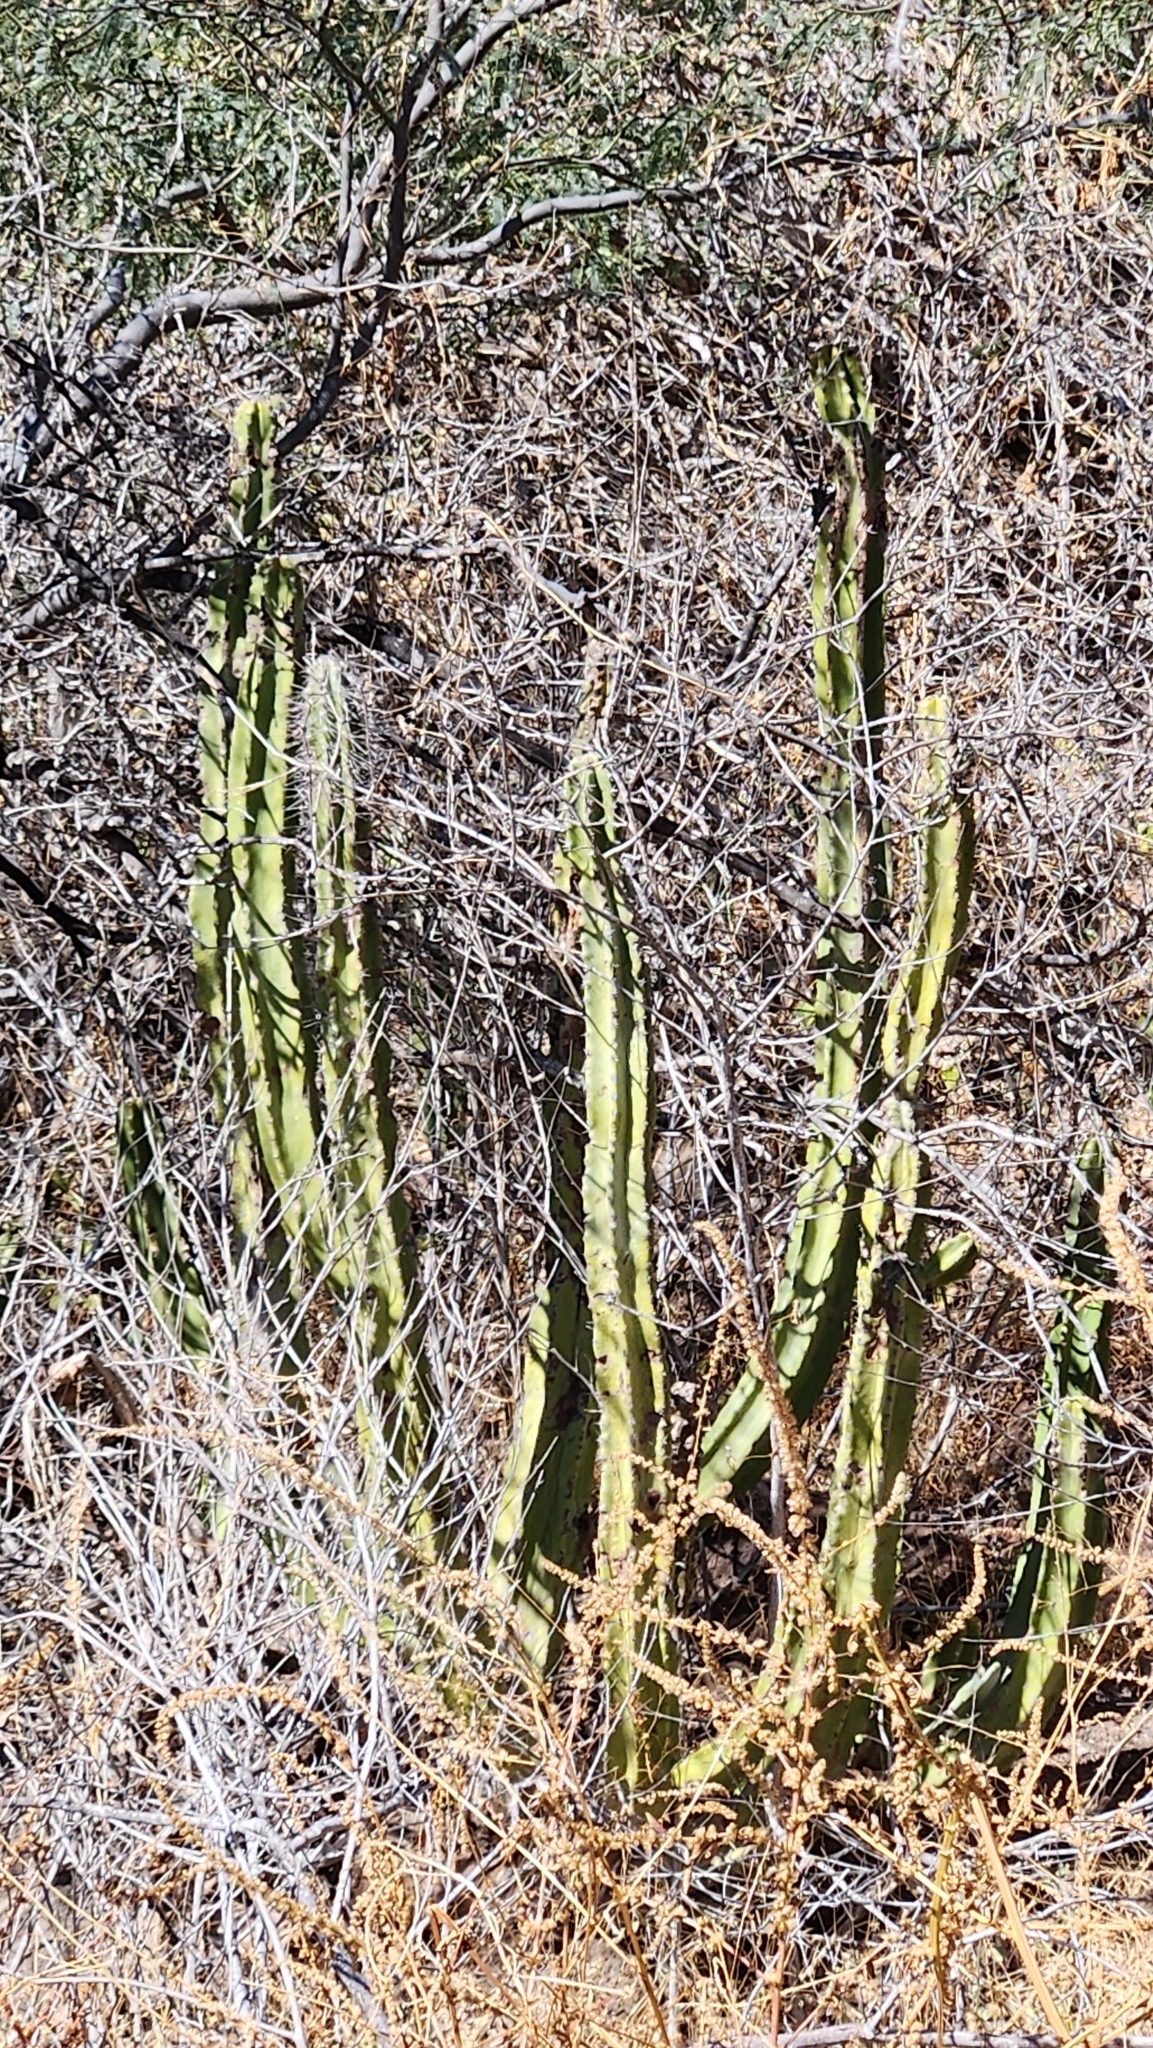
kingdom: Plantae
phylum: Tracheophyta
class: Magnoliopsida
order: Caryophyllales
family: Cactaceae
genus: Pachycereus
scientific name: Pachycereus schottii
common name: Senita cactus
